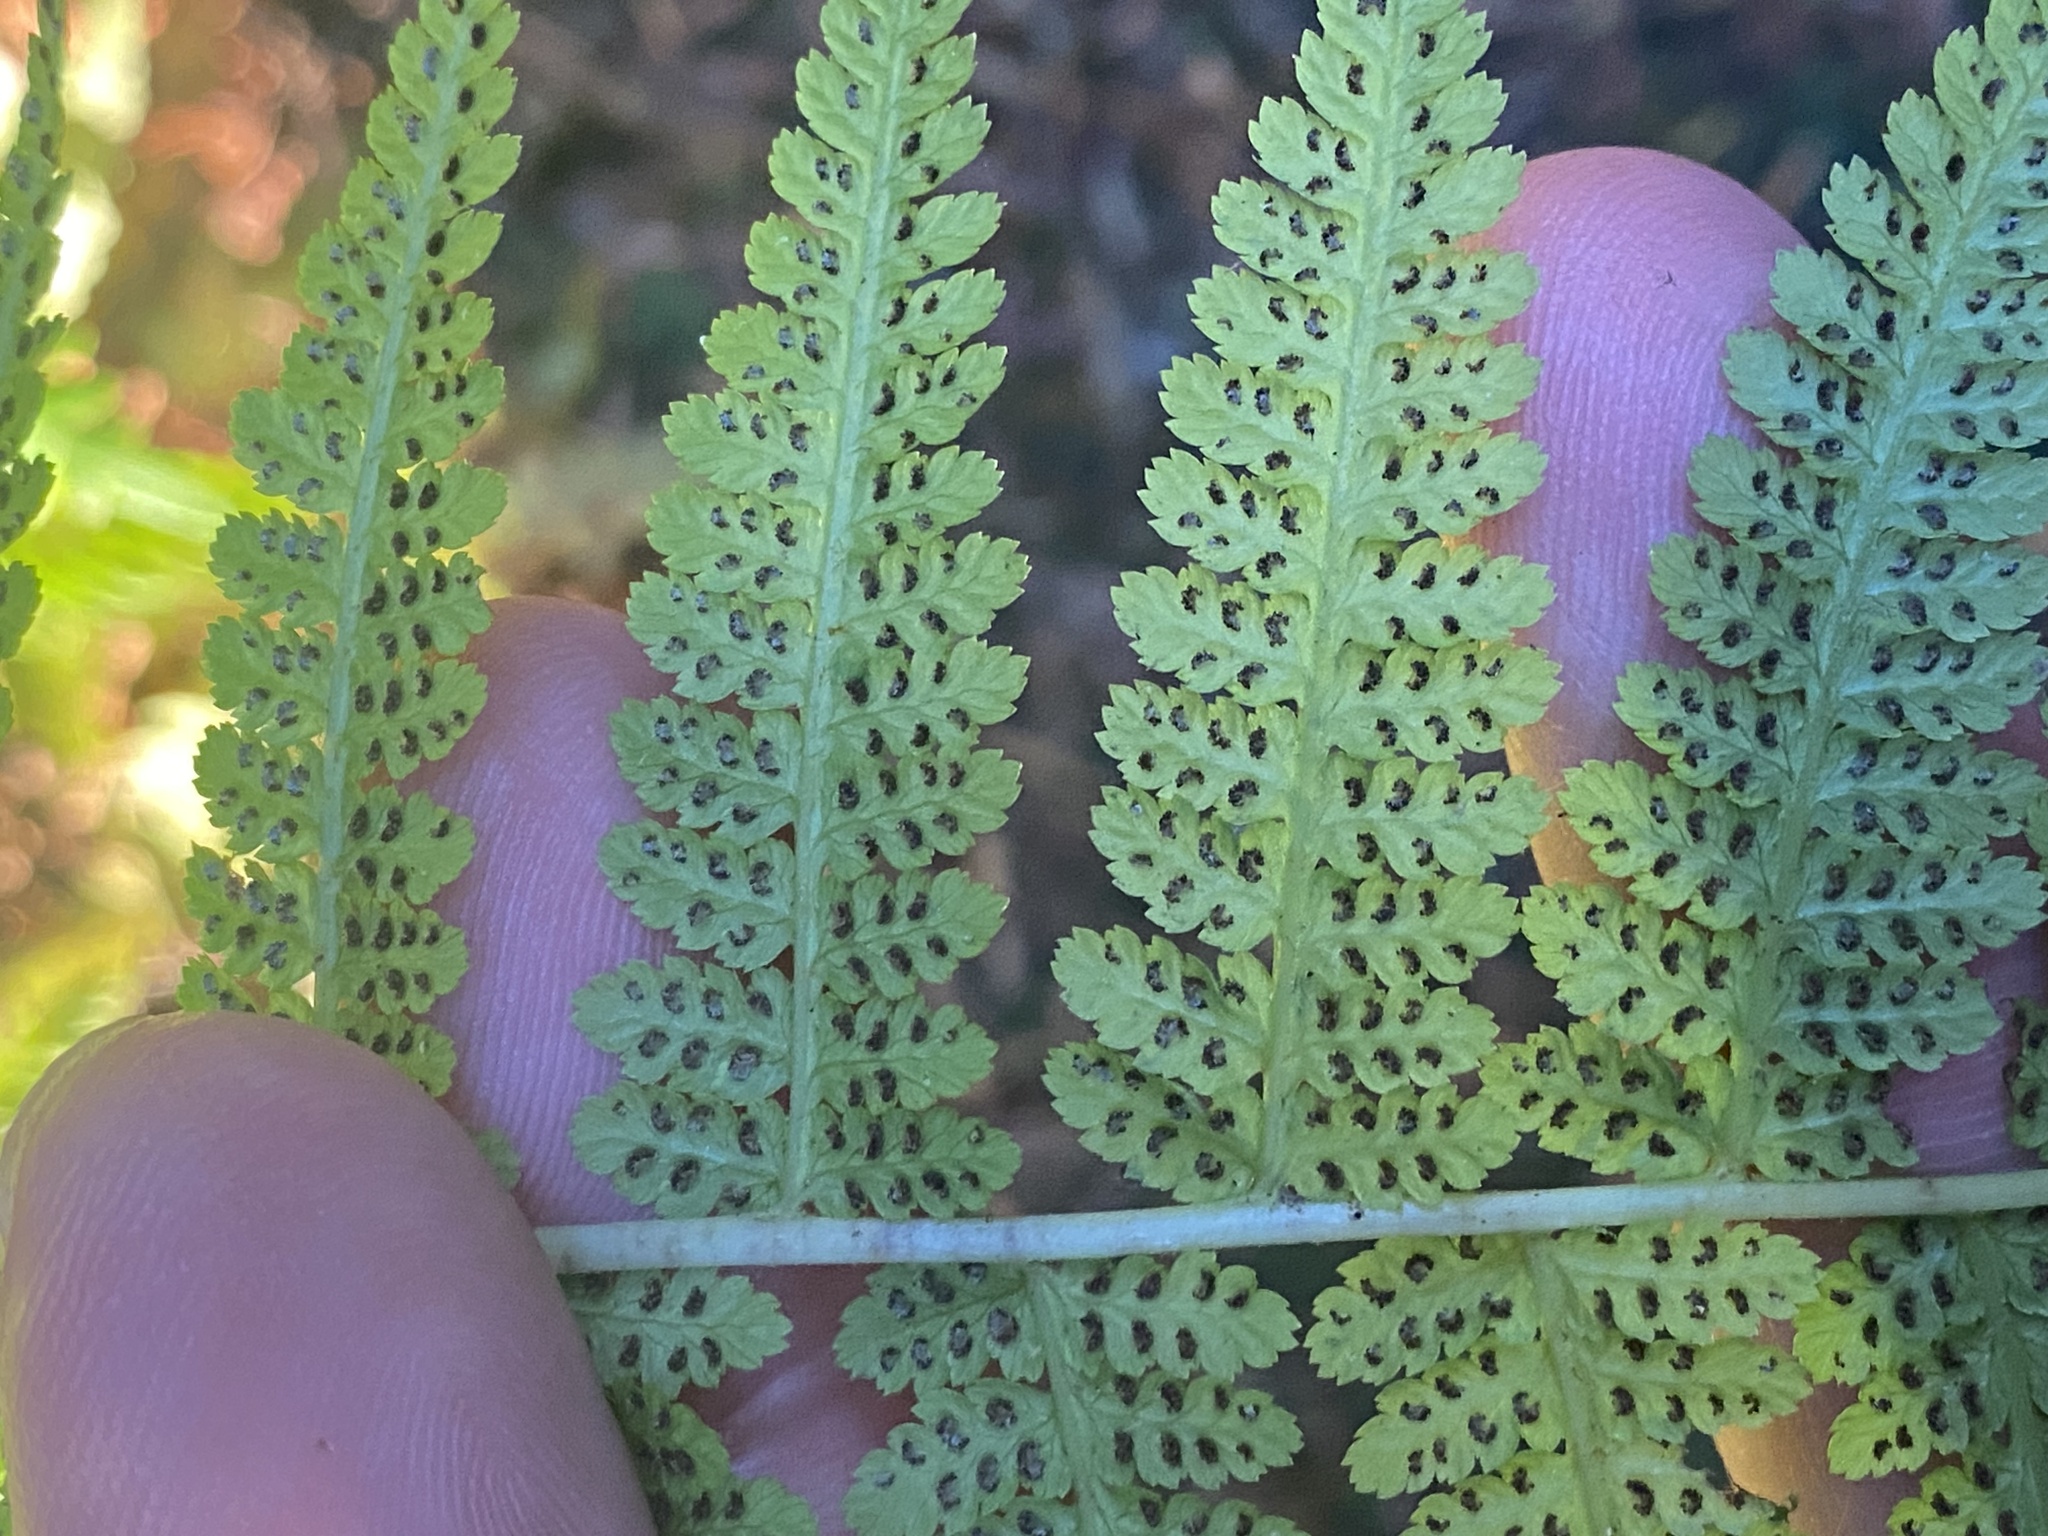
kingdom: Plantae
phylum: Tracheophyta
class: Polypodiopsida
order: Polypodiales
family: Athyriaceae
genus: Athyrium
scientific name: Athyrium cyclosorum
